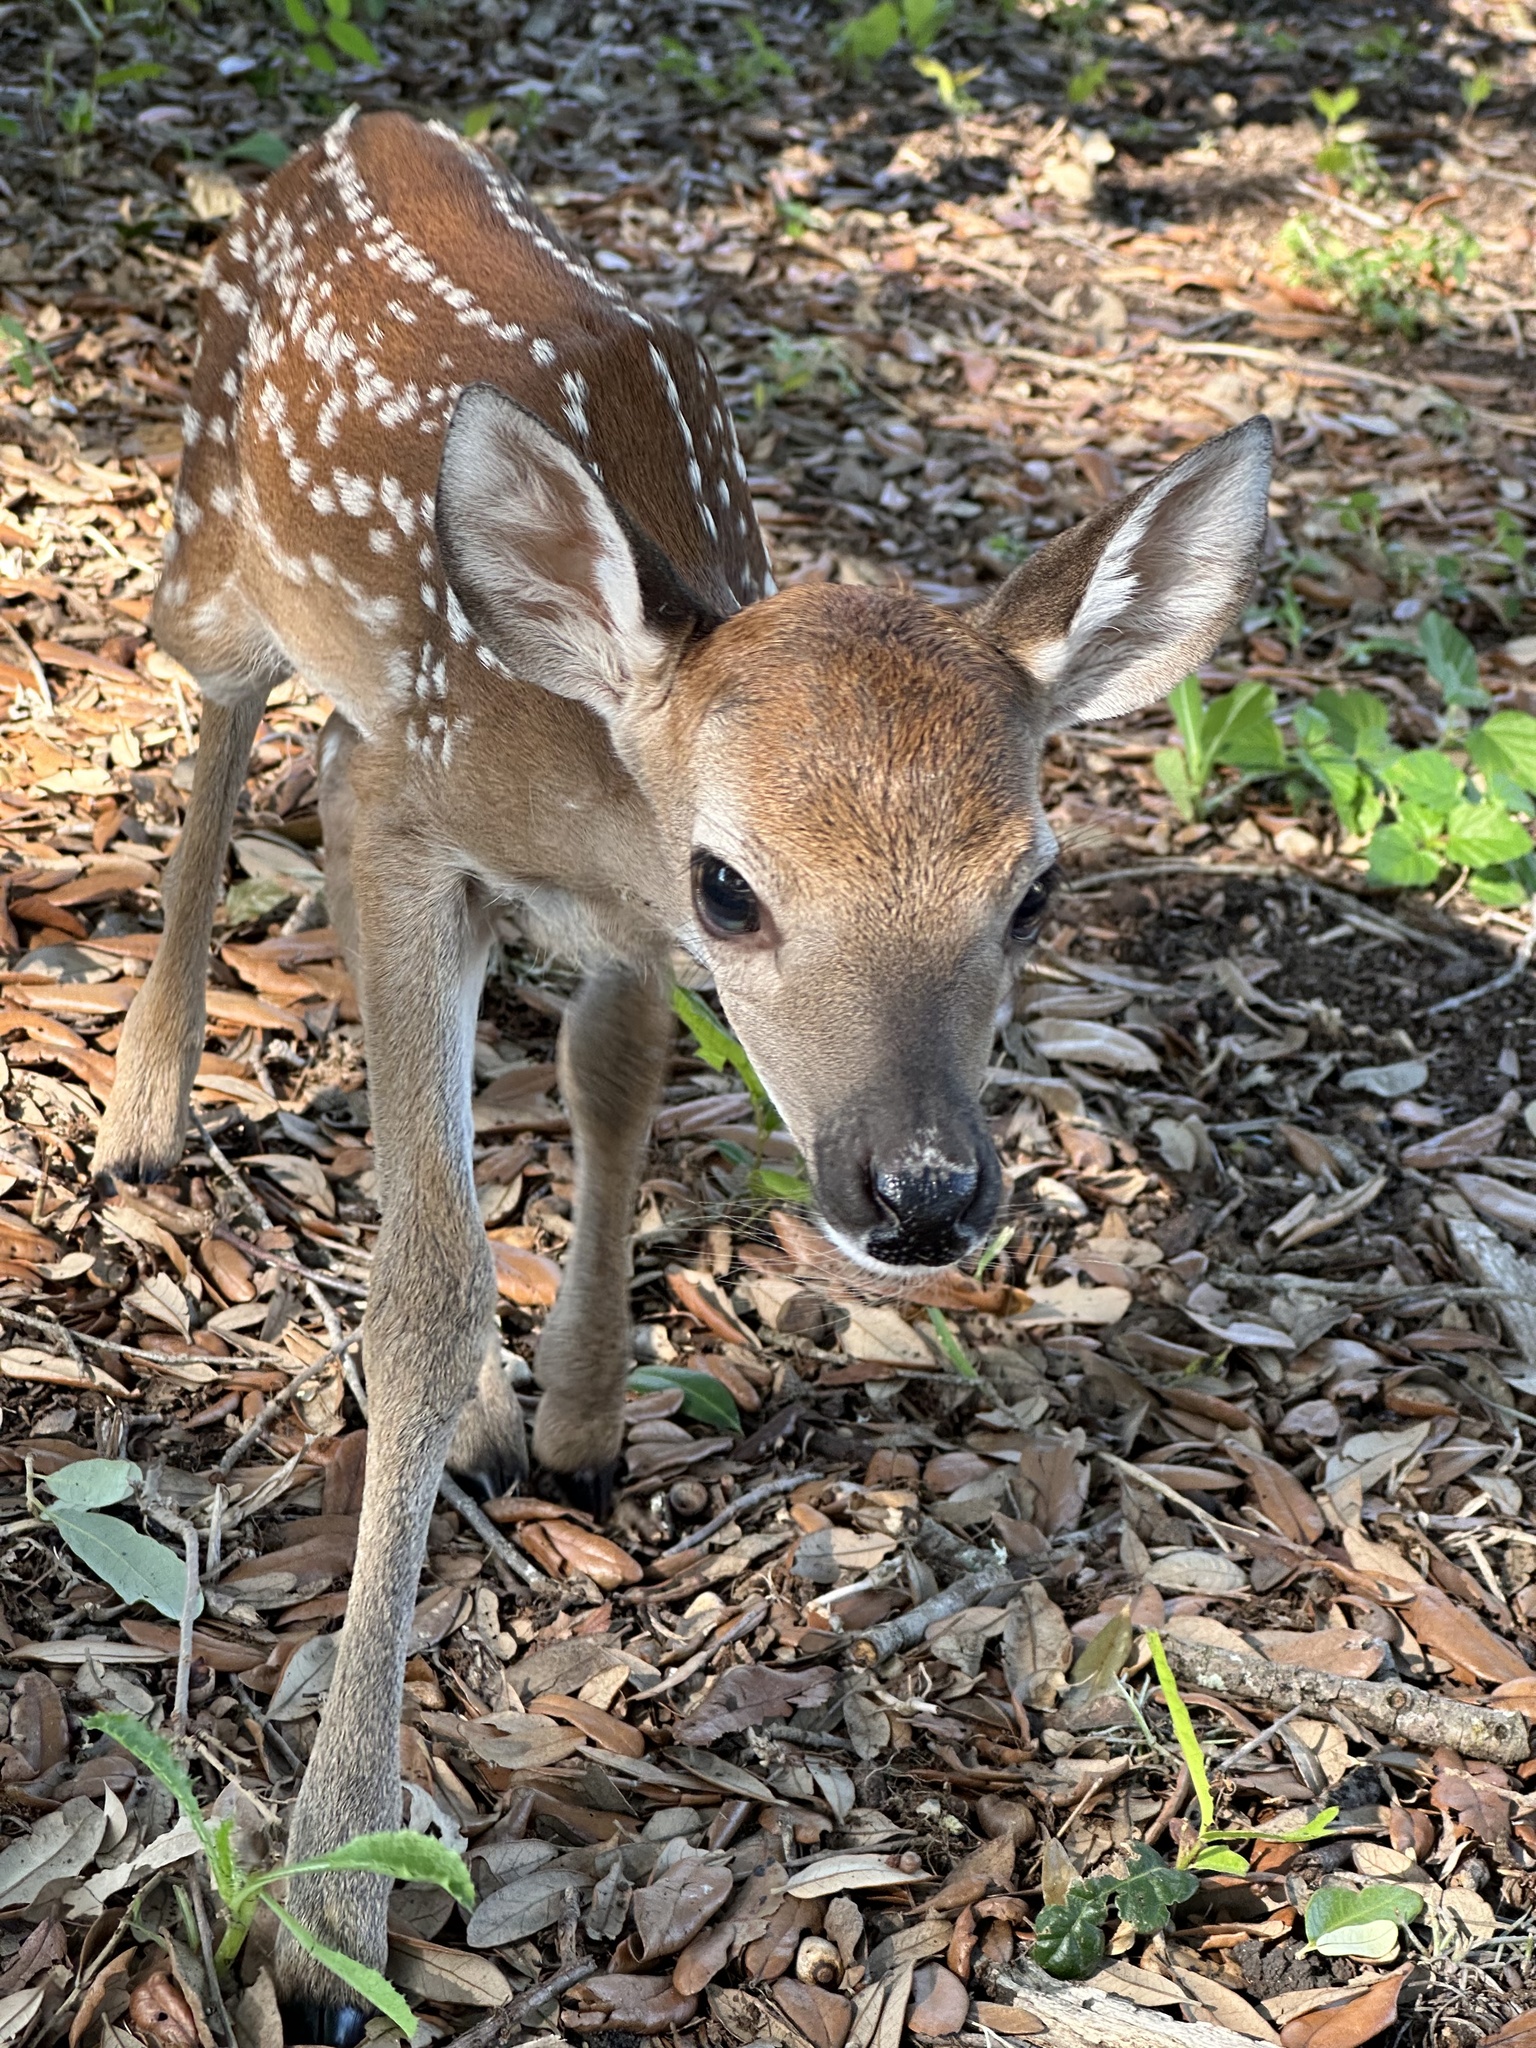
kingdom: Animalia
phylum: Chordata
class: Mammalia
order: Artiodactyla
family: Cervidae
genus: Odocoileus
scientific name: Odocoileus virginianus
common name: White-tailed deer
